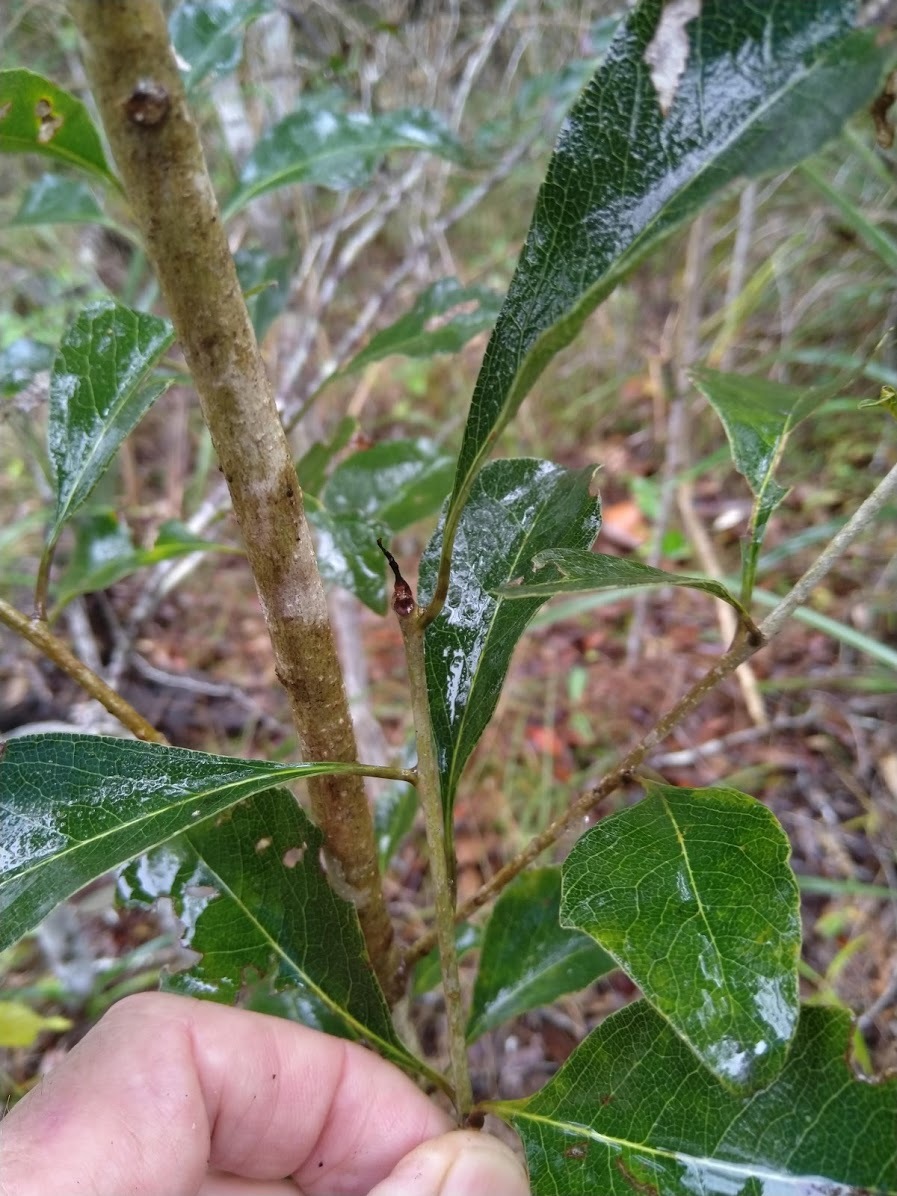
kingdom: Plantae
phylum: Tracheophyta
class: Magnoliopsida
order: Apiales
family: Pittosporaceae
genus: Auranticarpa
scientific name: Auranticarpa rhombifolia
